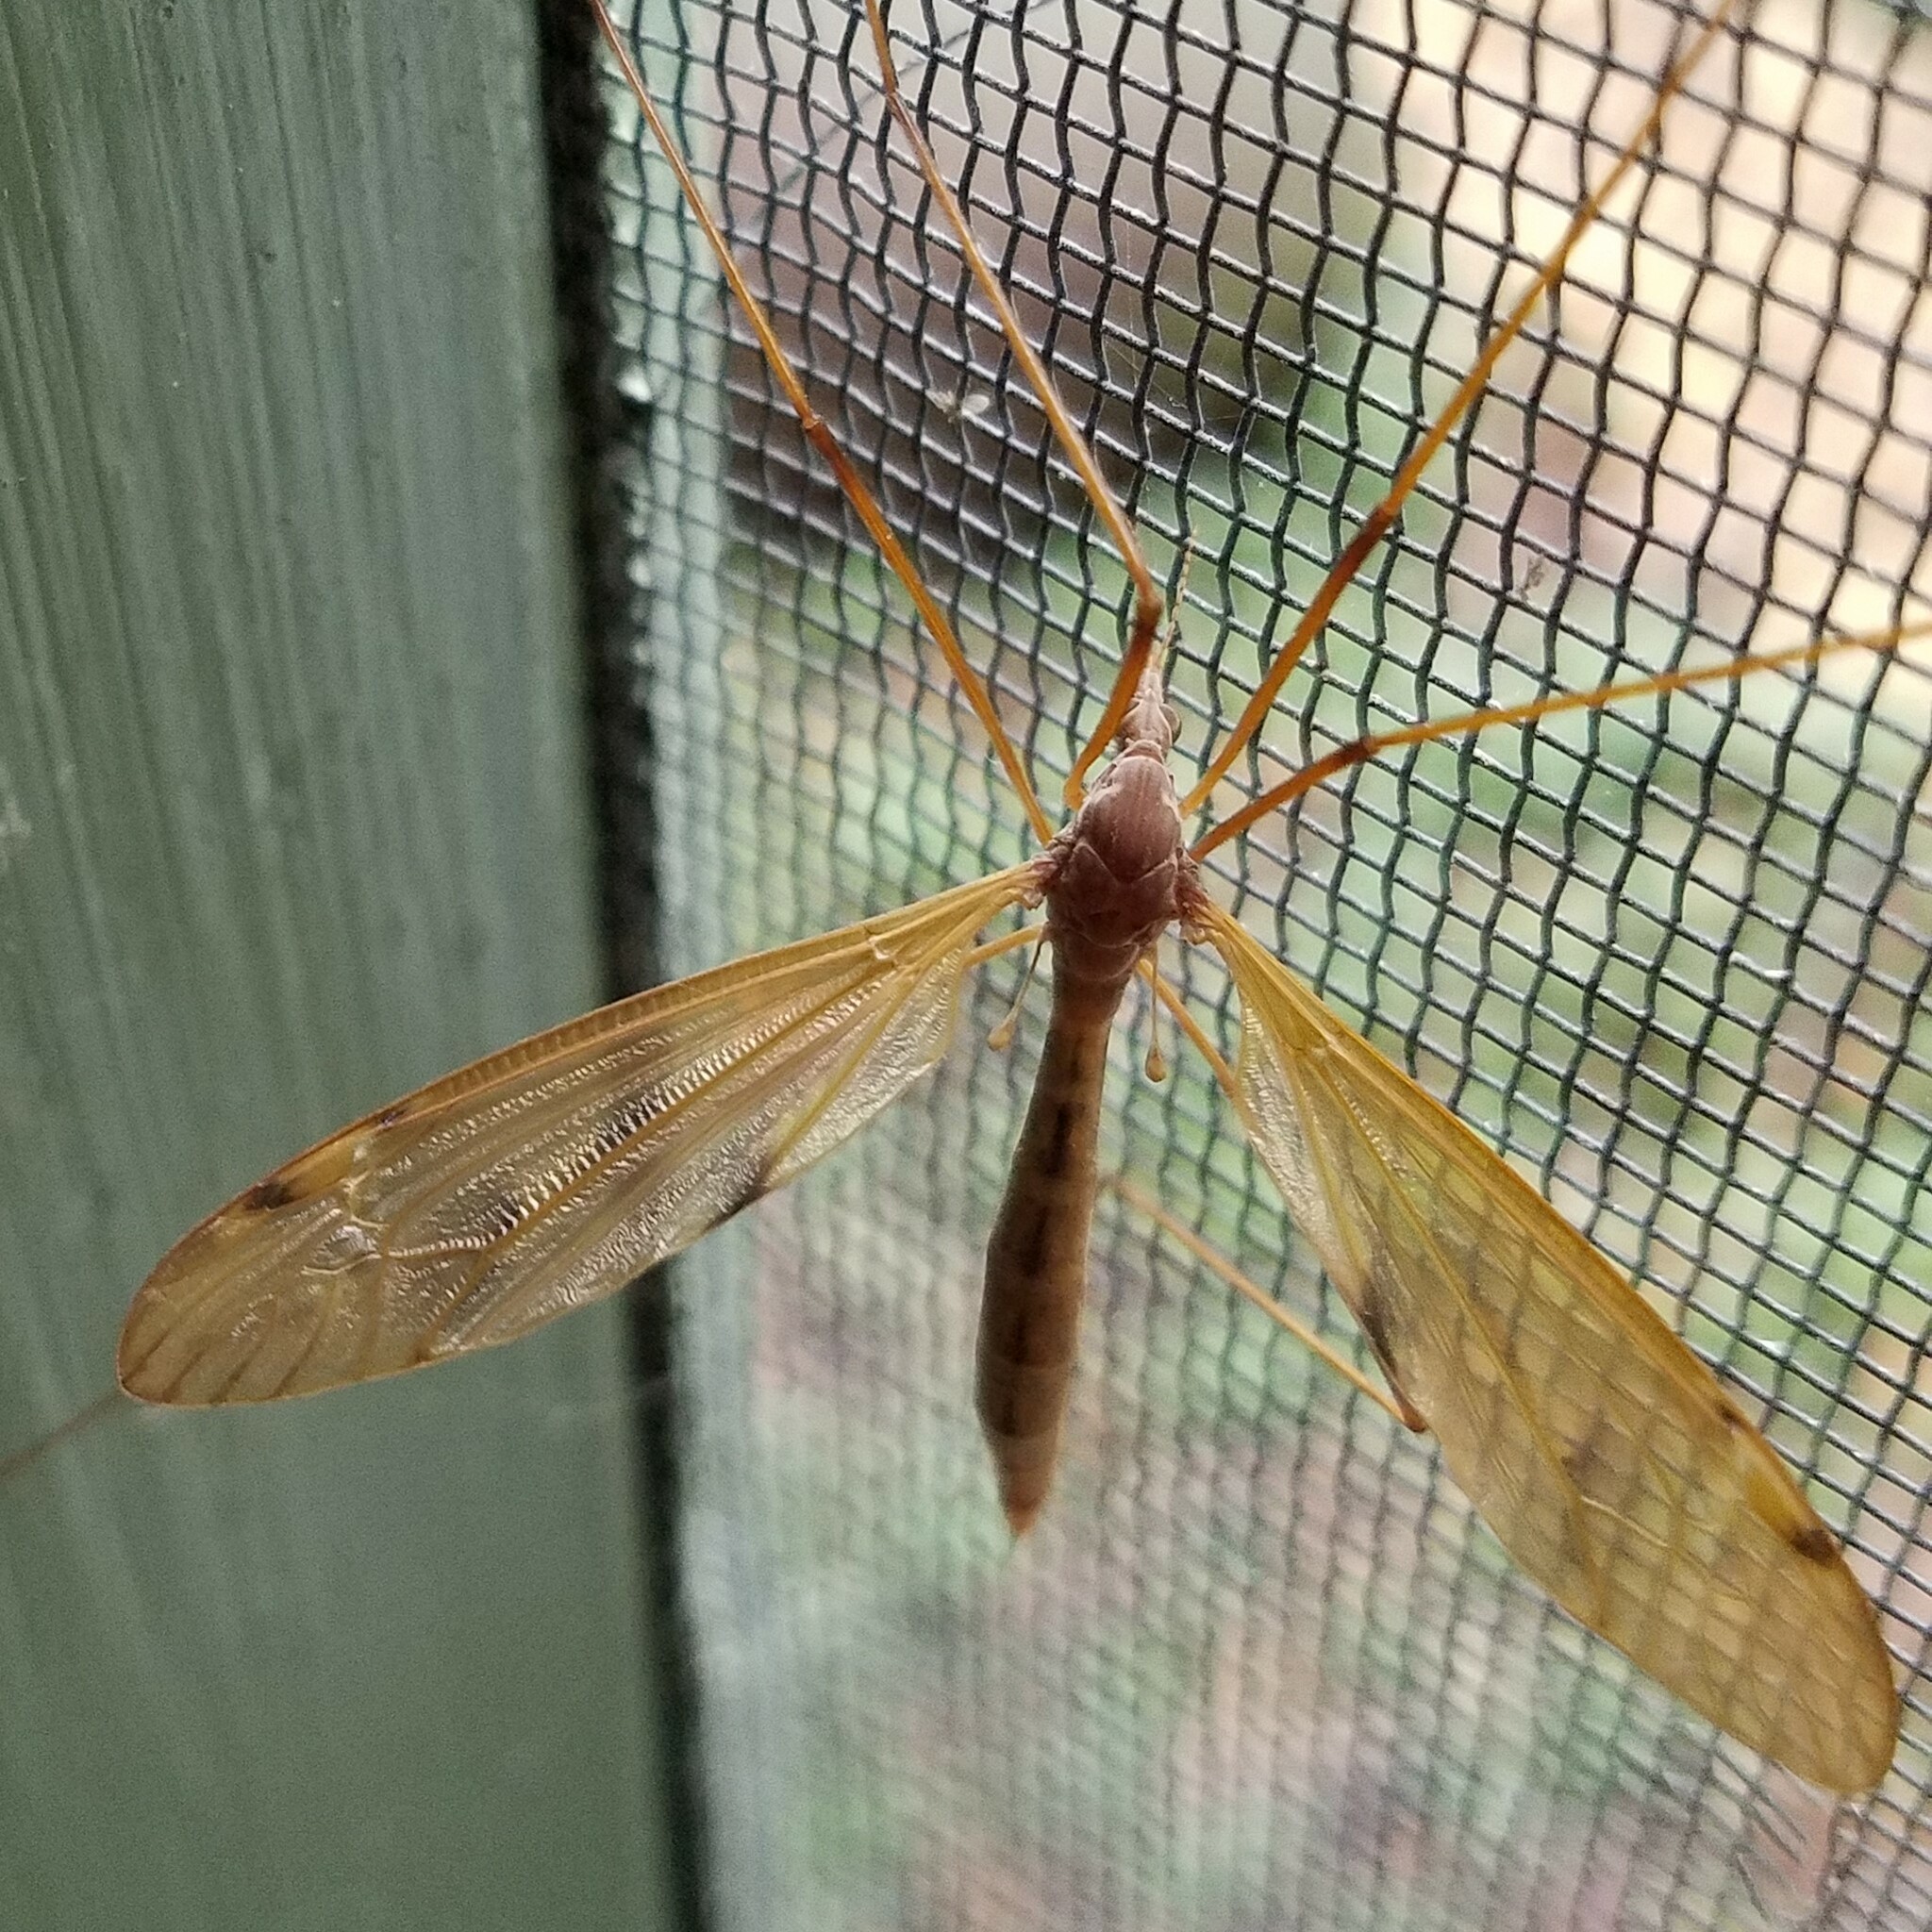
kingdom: Animalia
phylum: Arthropoda
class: Insecta
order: Diptera
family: Tipulidae
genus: Tipula
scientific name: Tipula
